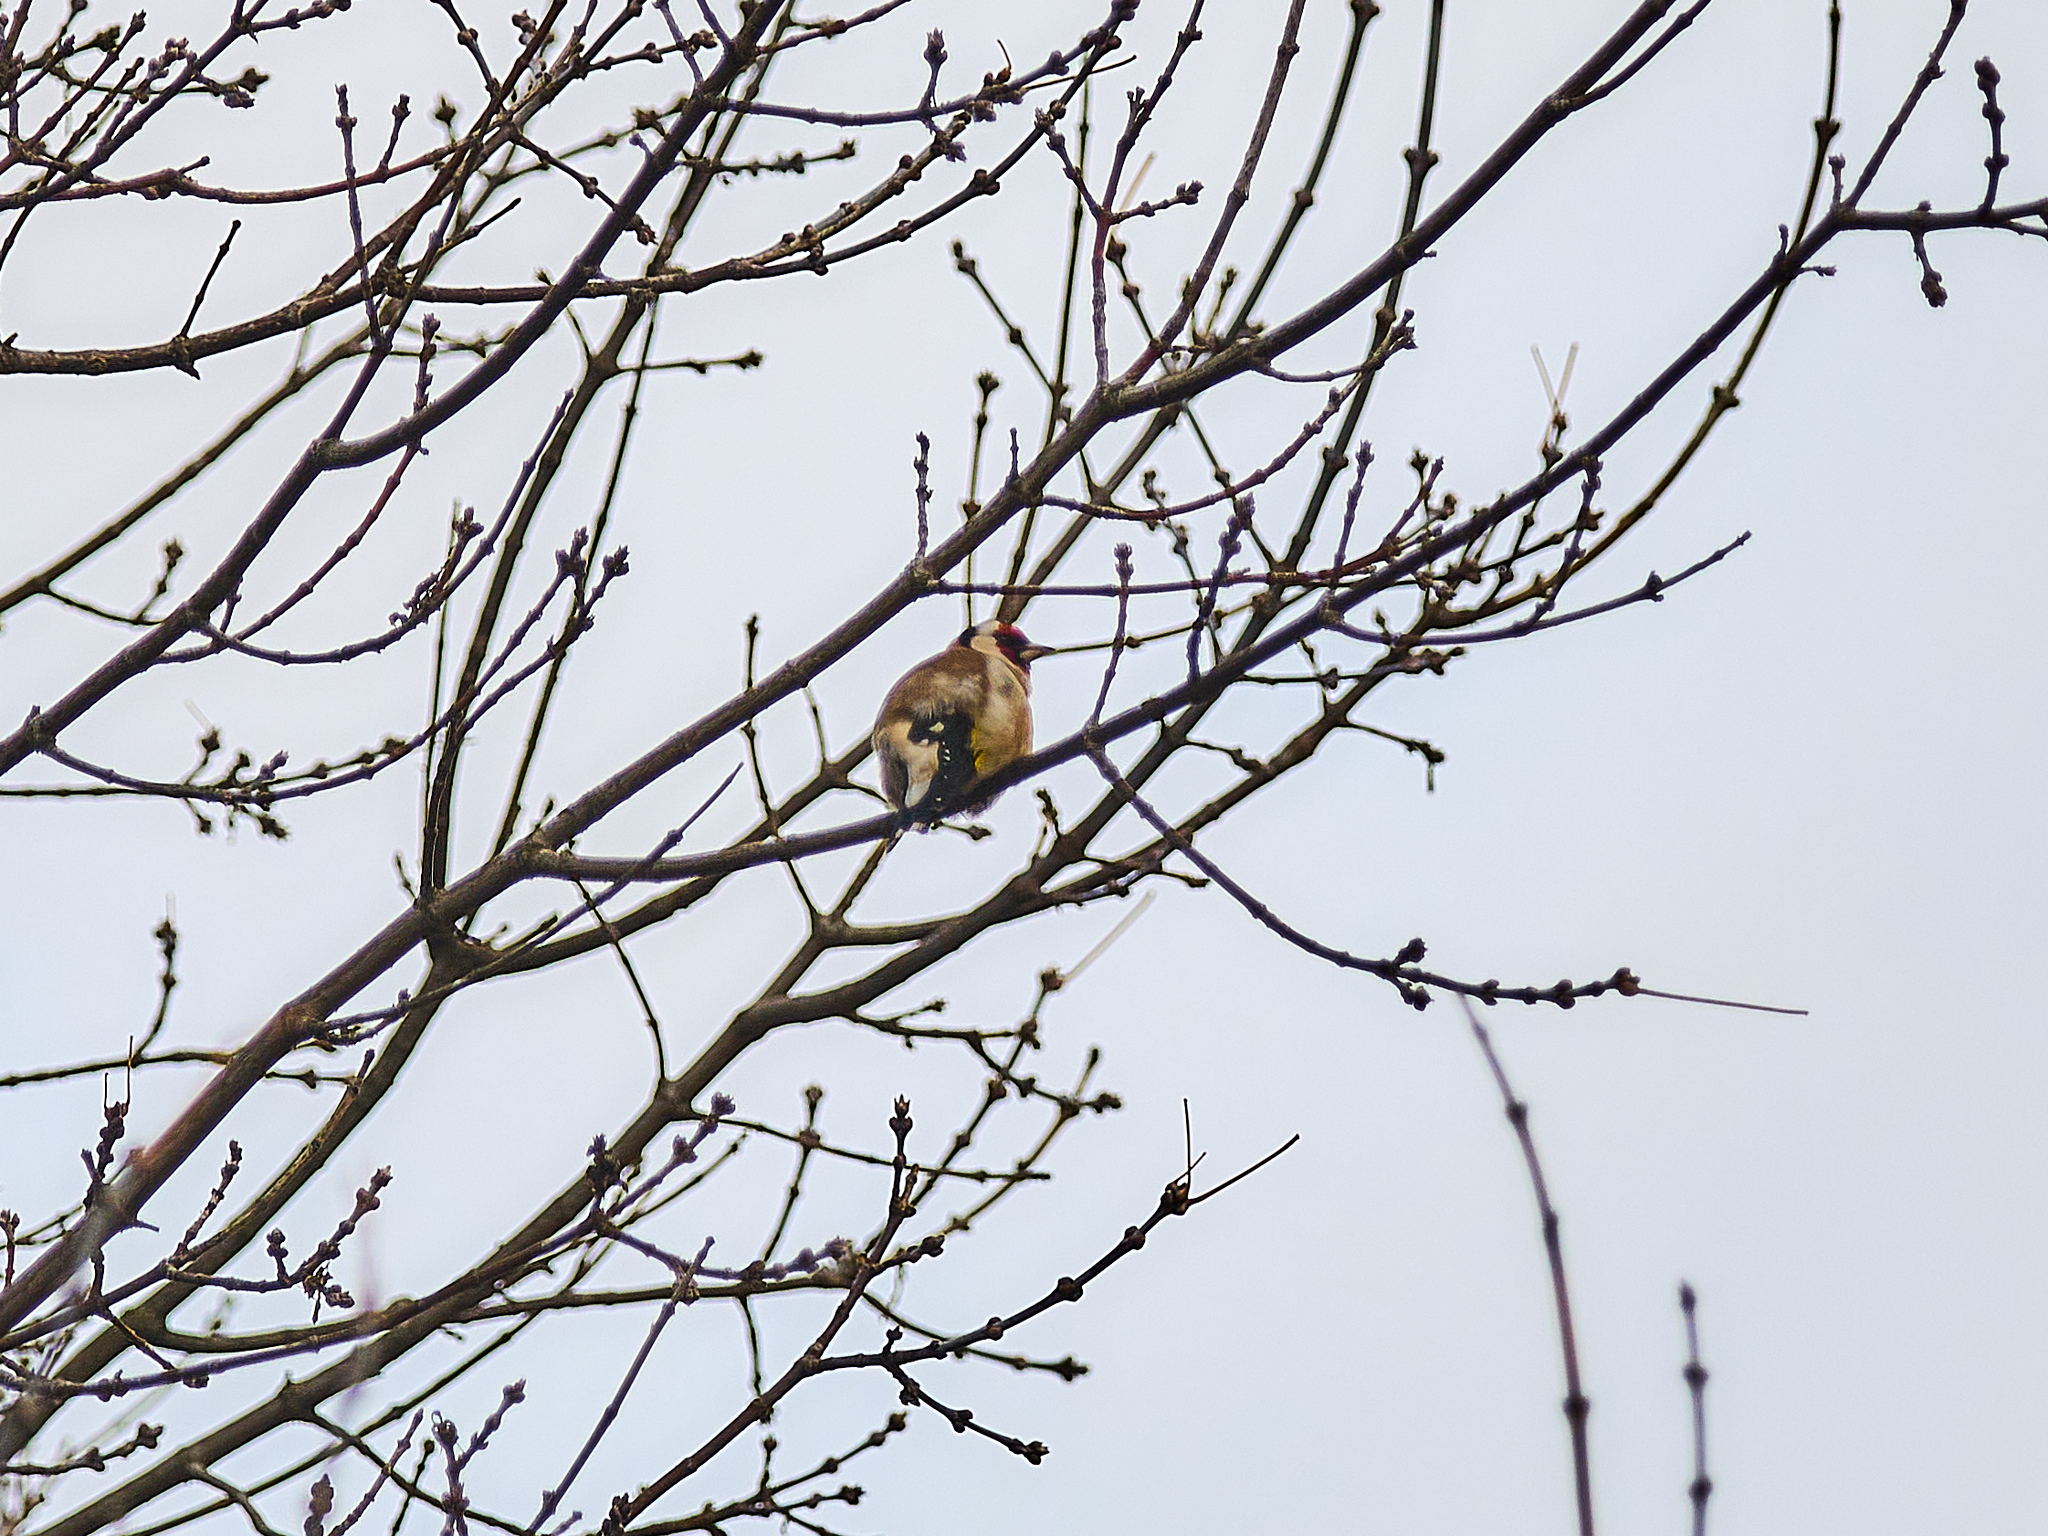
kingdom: Animalia
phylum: Chordata
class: Aves
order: Passeriformes
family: Fringillidae
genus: Carduelis
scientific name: Carduelis carduelis
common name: European goldfinch
